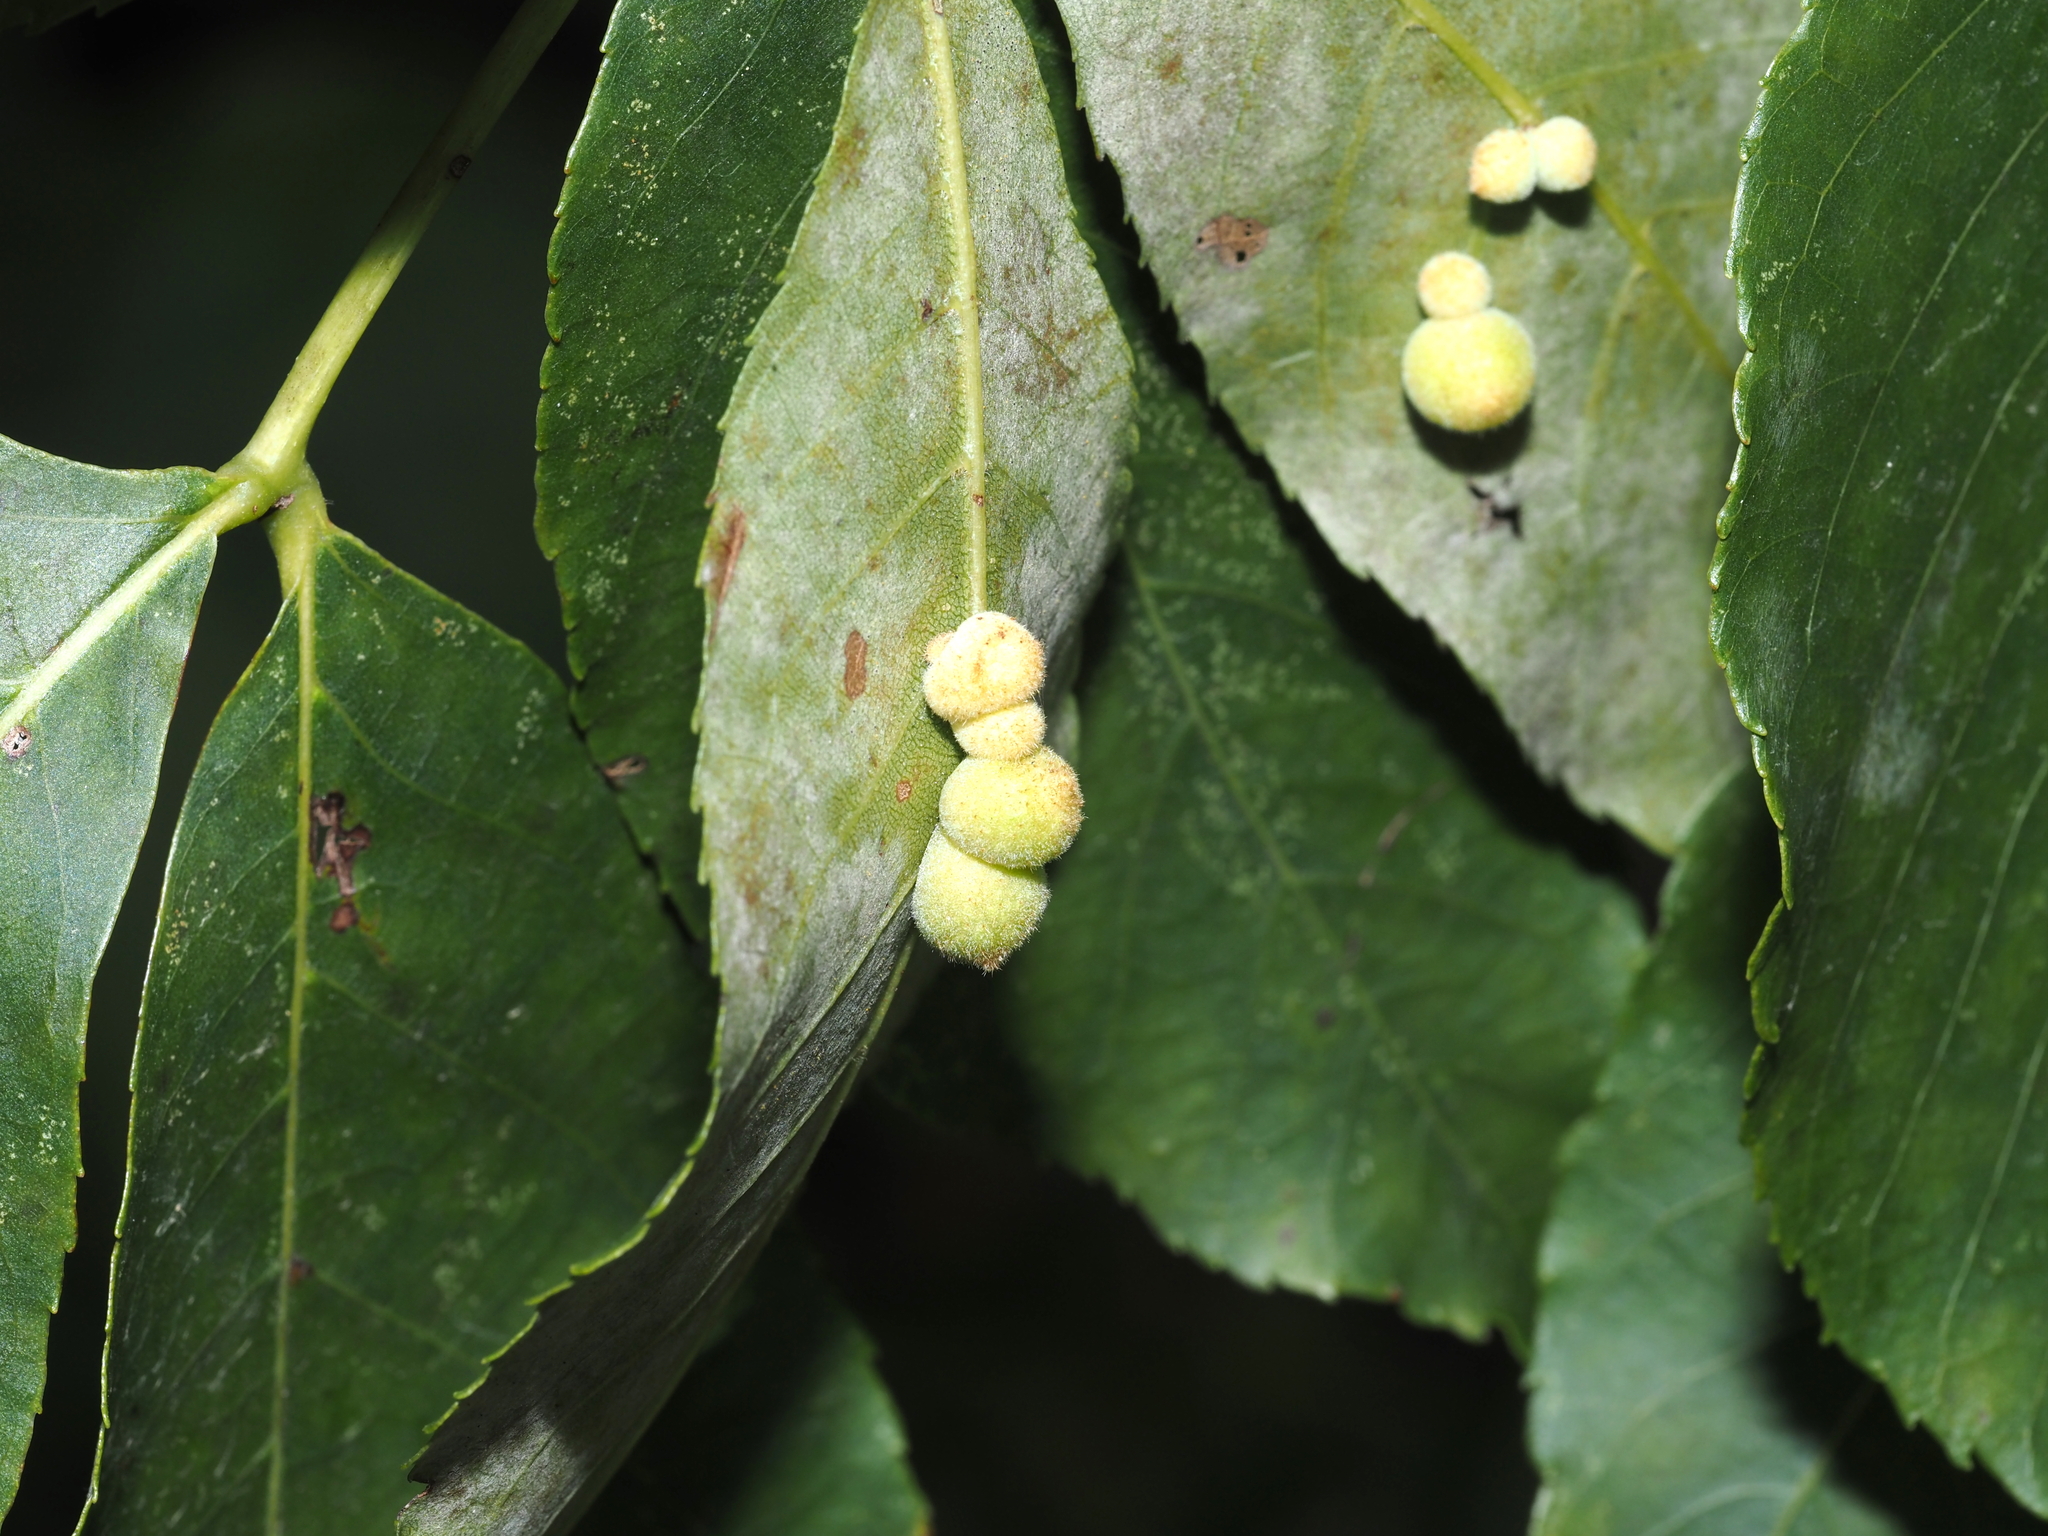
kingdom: Animalia
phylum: Arthropoda
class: Insecta
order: Diptera
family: Cecidomyiidae
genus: Caryomyia
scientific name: Caryomyia persicoides
